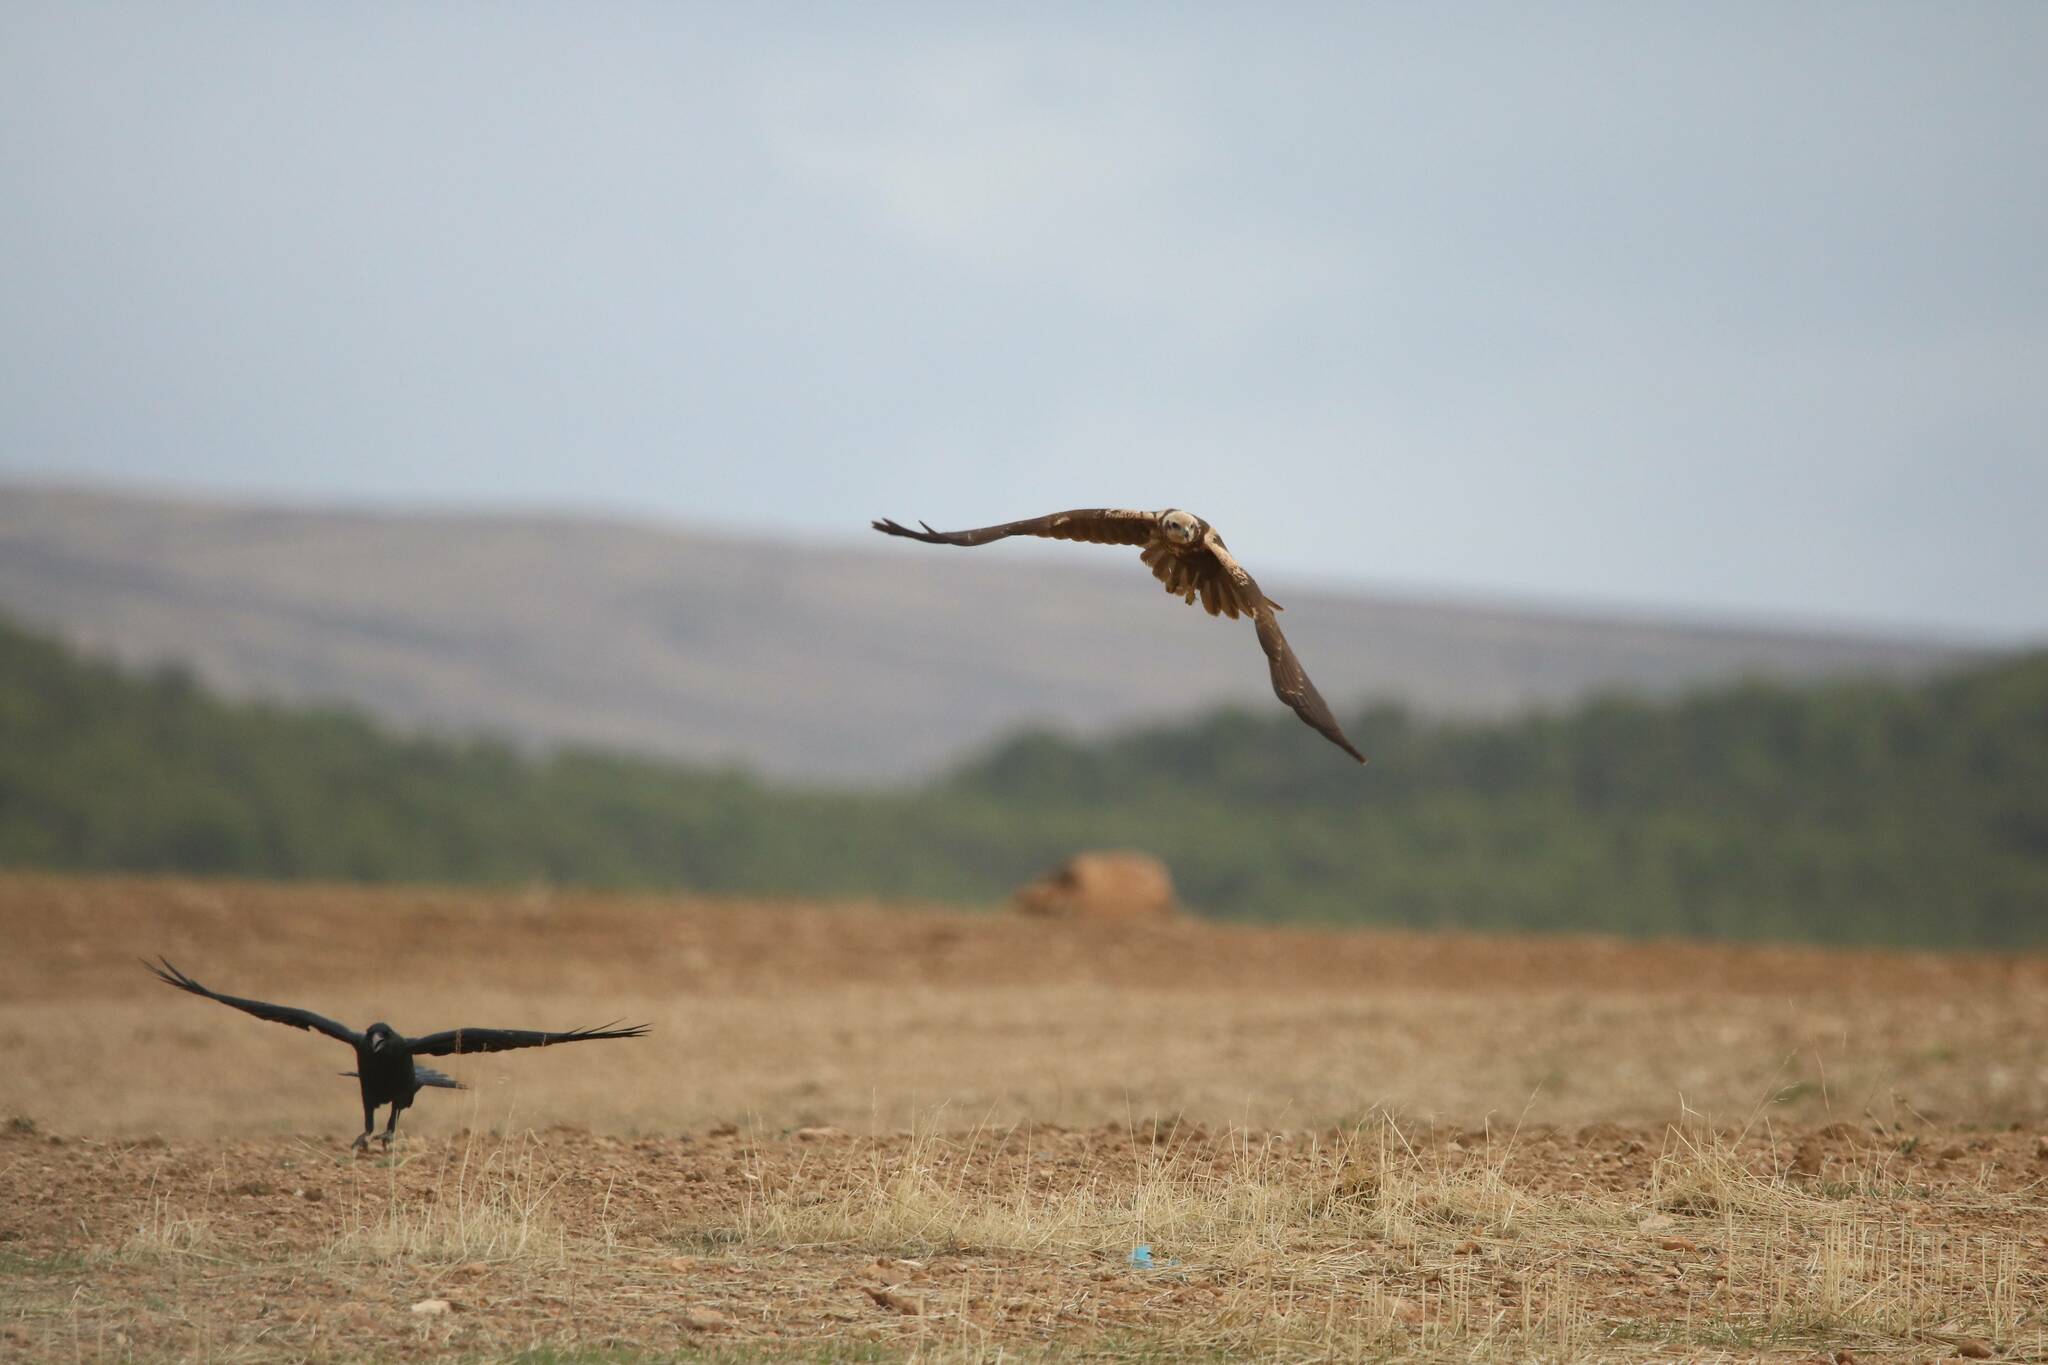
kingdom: Animalia
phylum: Chordata
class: Aves
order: Accipitriformes
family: Accipitridae
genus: Circus
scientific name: Circus aeruginosus
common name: Western marsh harrier
